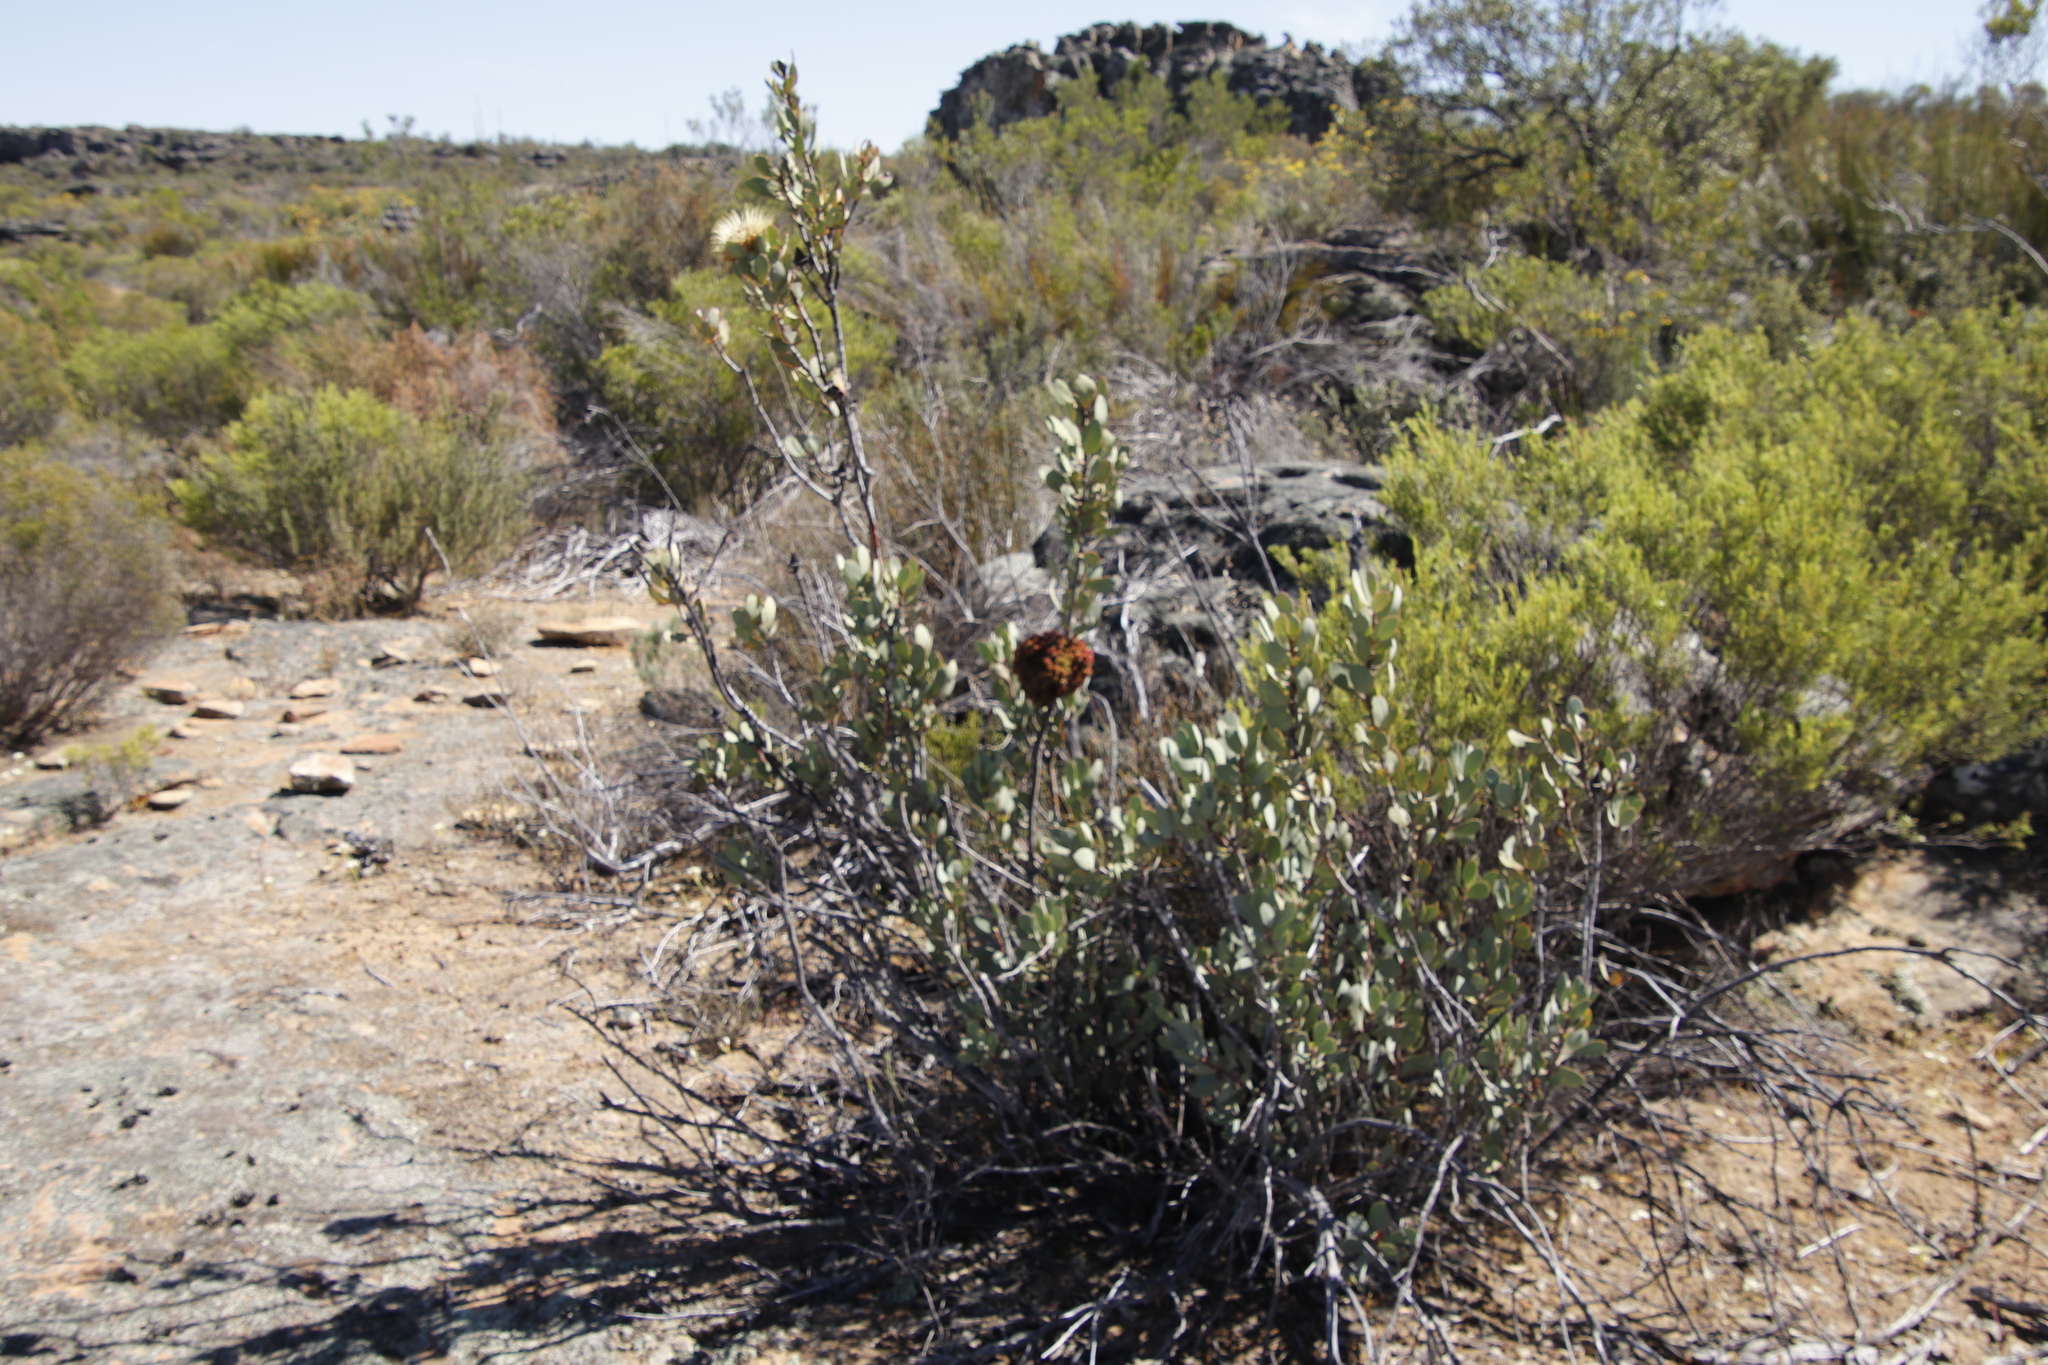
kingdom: Bacteria
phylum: Firmicutes
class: Bacilli
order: Acholeplasmatales
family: Acholeplasmataceae
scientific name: Acholeplasmataceae
